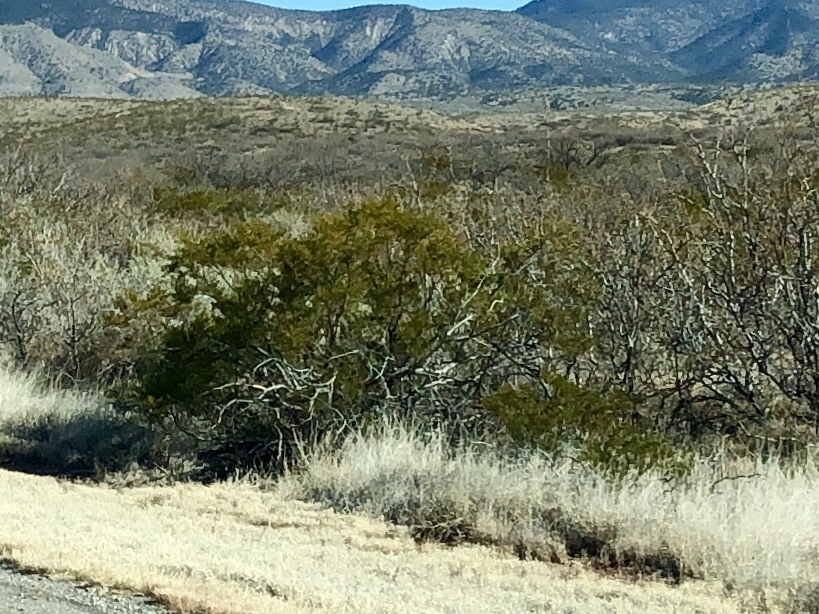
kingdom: Plantae
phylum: Tracheophyta
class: Magnoliopsida
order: Zygophyllales
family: Zygophyllaceae
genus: Larrea
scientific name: Larrea tridentata
